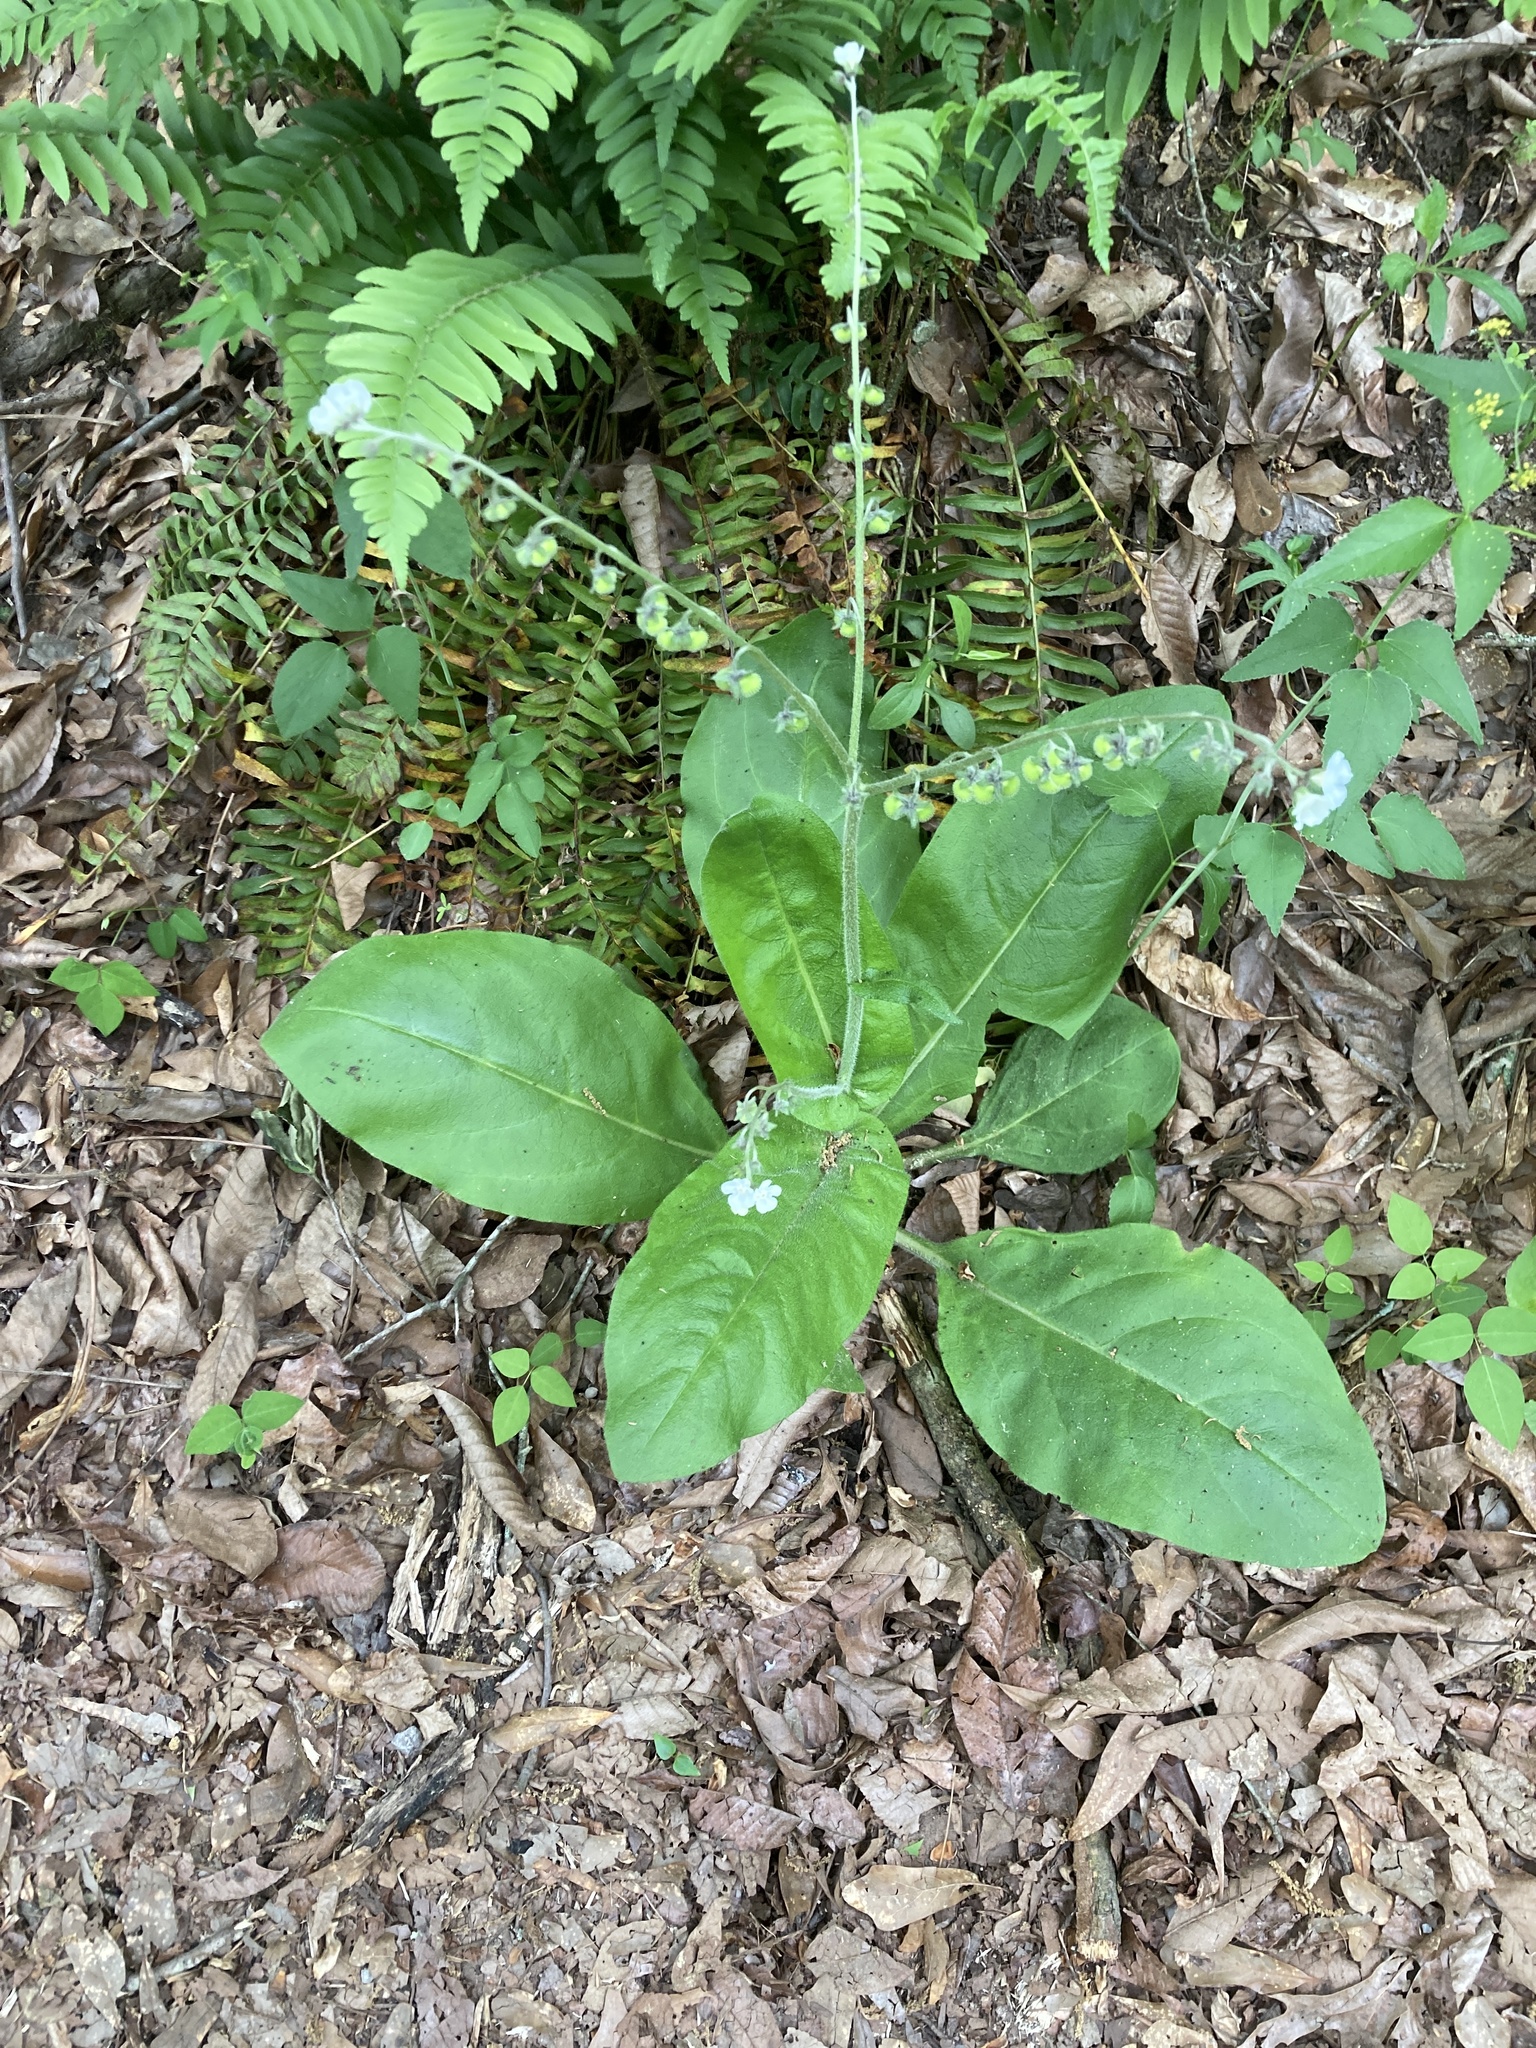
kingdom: Plantae
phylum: Tracheophyta
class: Magnoliopsida
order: Boraginales
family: Boraginaceae
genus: Andersonglossum
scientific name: Andersonglossum virginianum
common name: Wild comfrey
